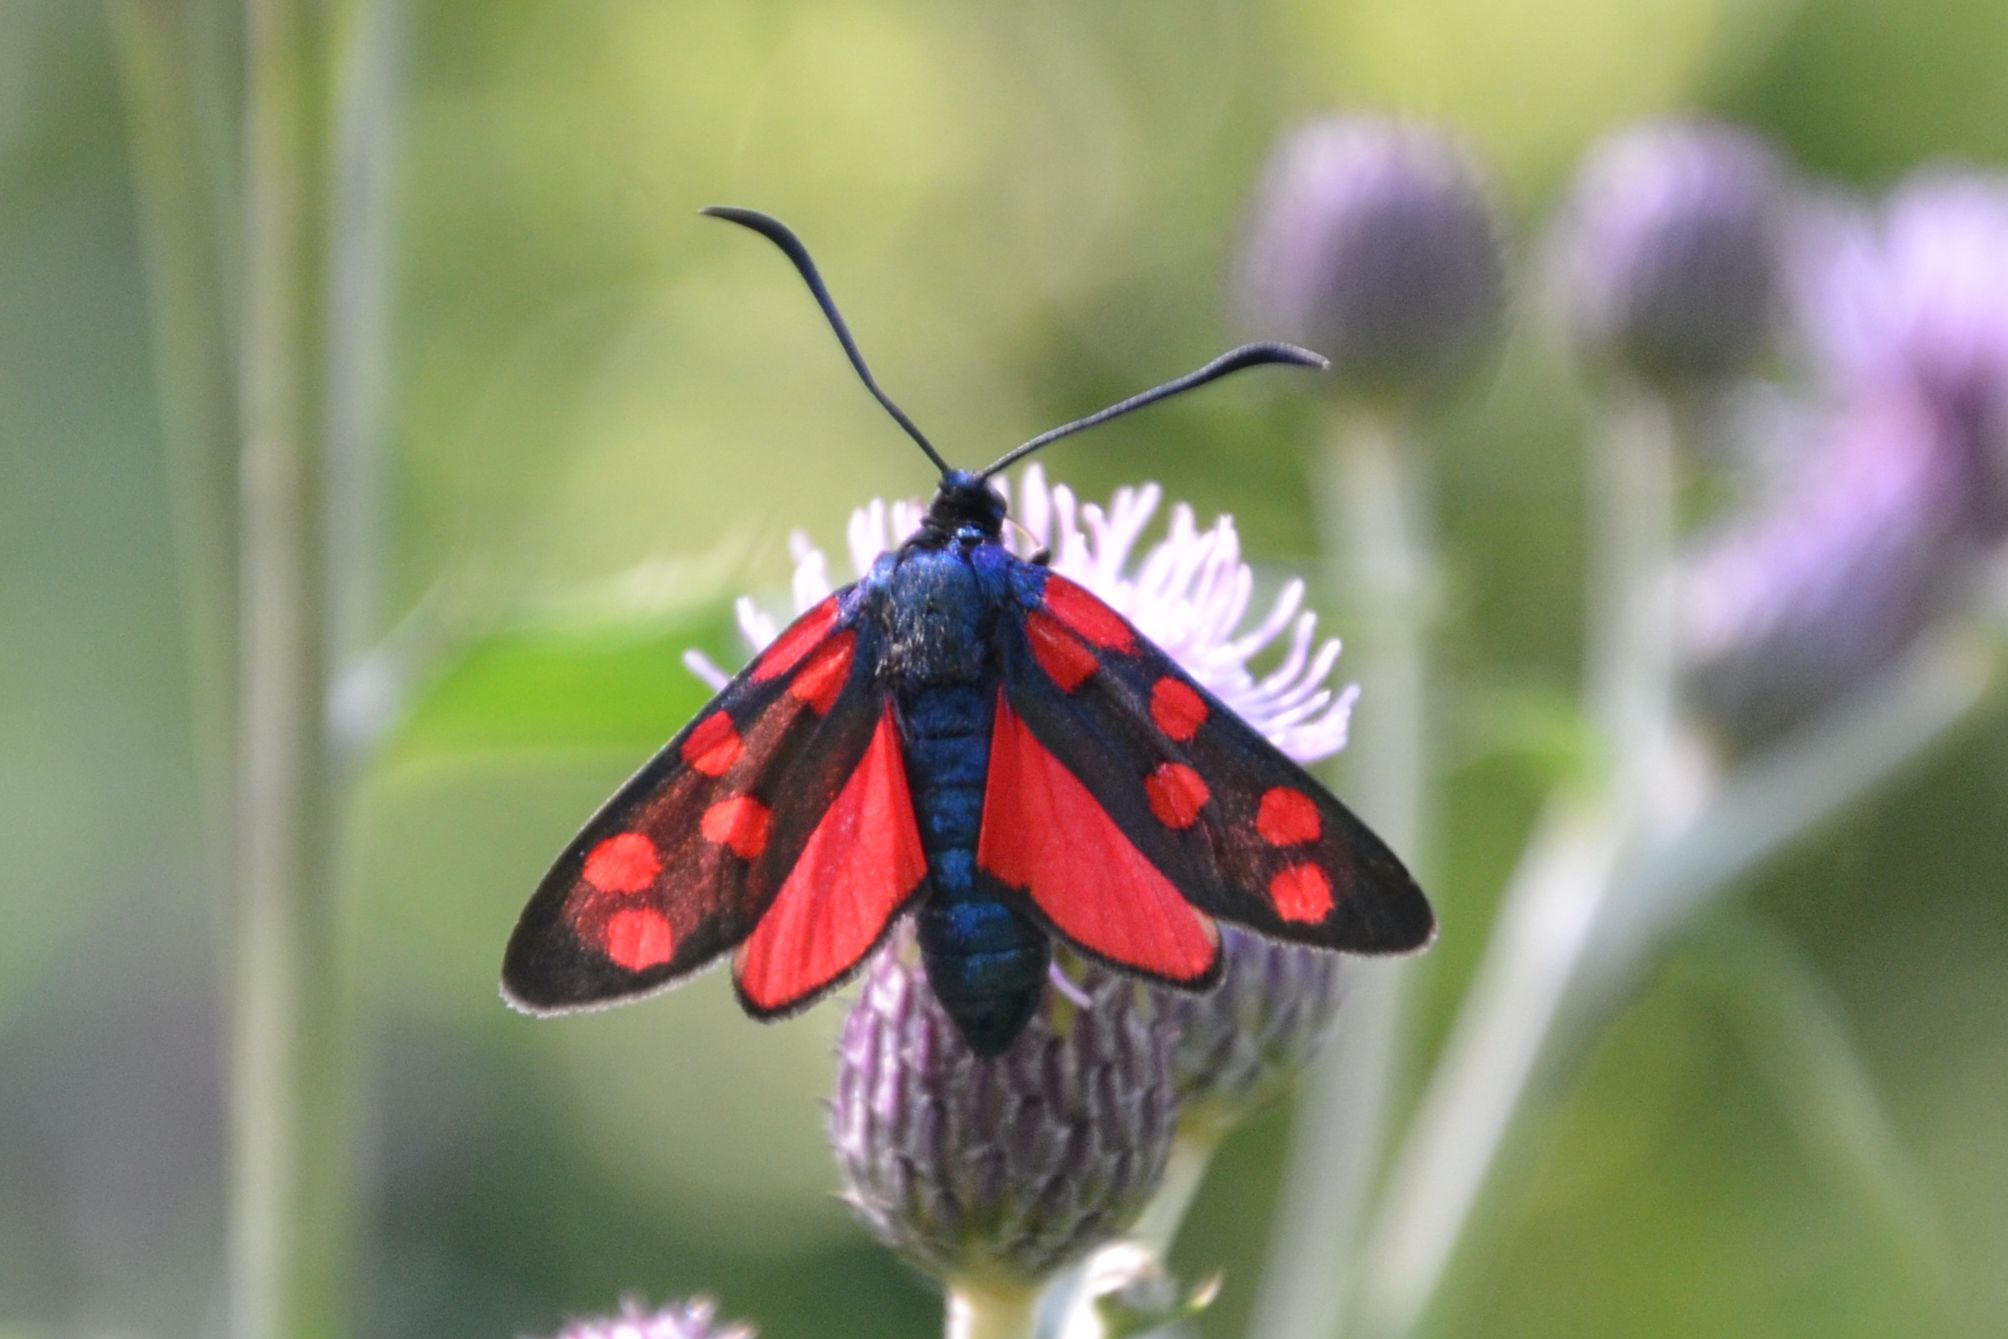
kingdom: Animalia
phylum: Arthropoda
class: Insecta
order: Lepidoptera
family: Zygaenidae
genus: Zygaena
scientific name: Zygaena transalpina
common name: Southern six spot burnet
